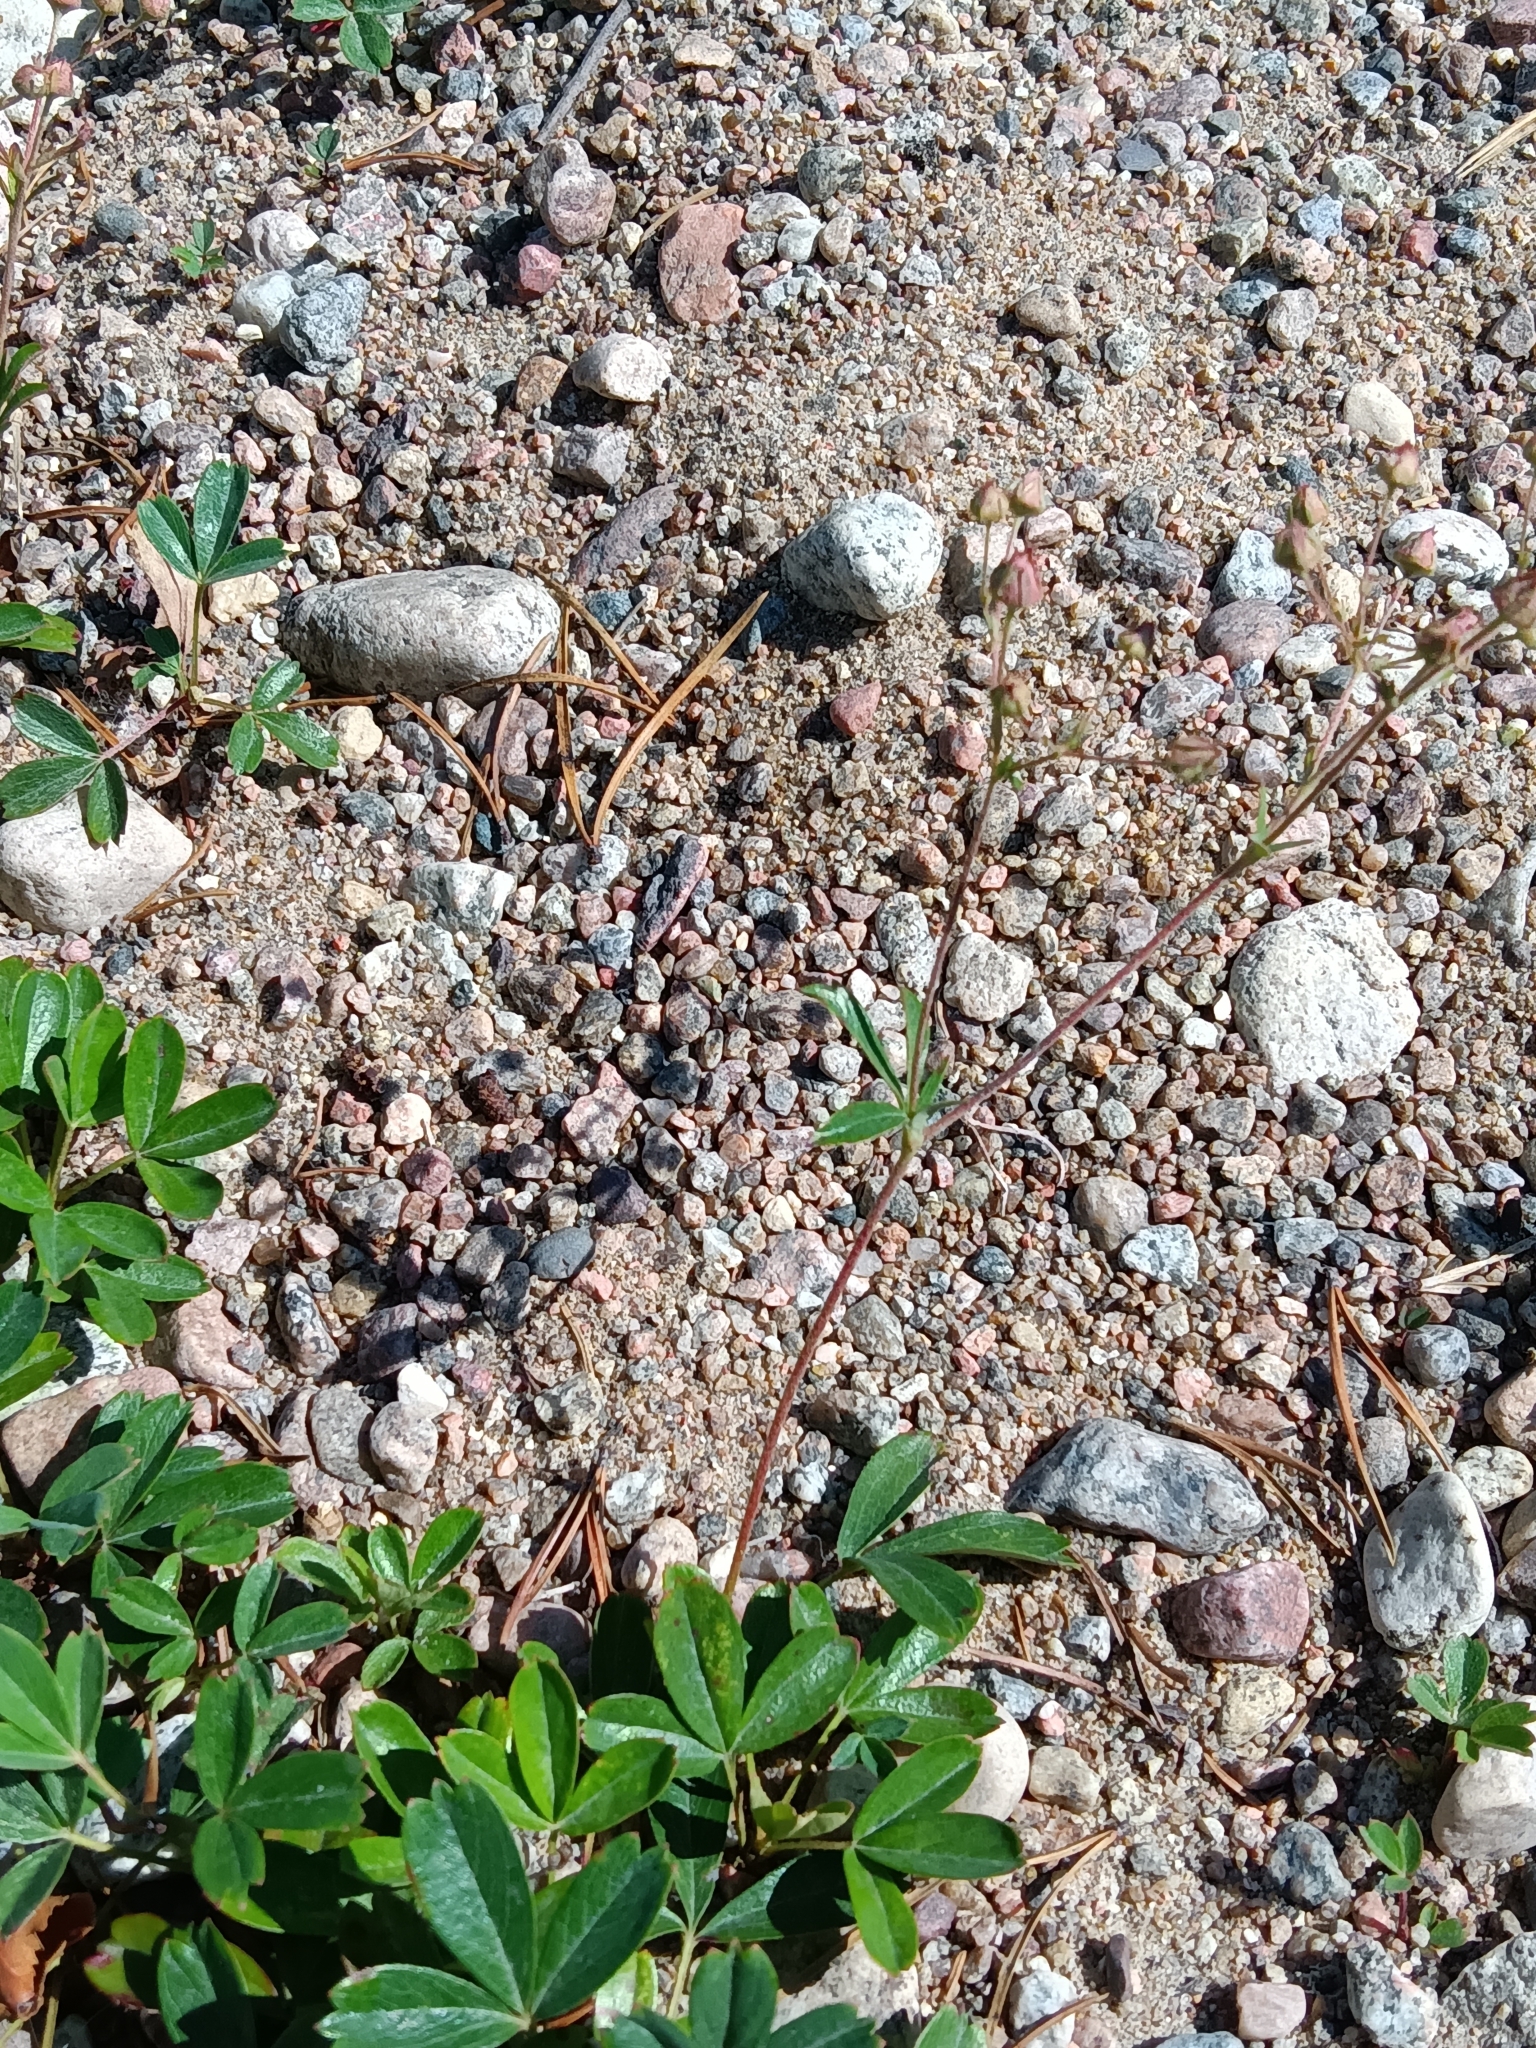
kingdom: Plantae
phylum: Tracheophyta
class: Magnoliopsida
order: Rosales
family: Rosaceae
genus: Sibbaldia
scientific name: Sibbaldia tridentata
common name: Three-toothed cinquefoil
